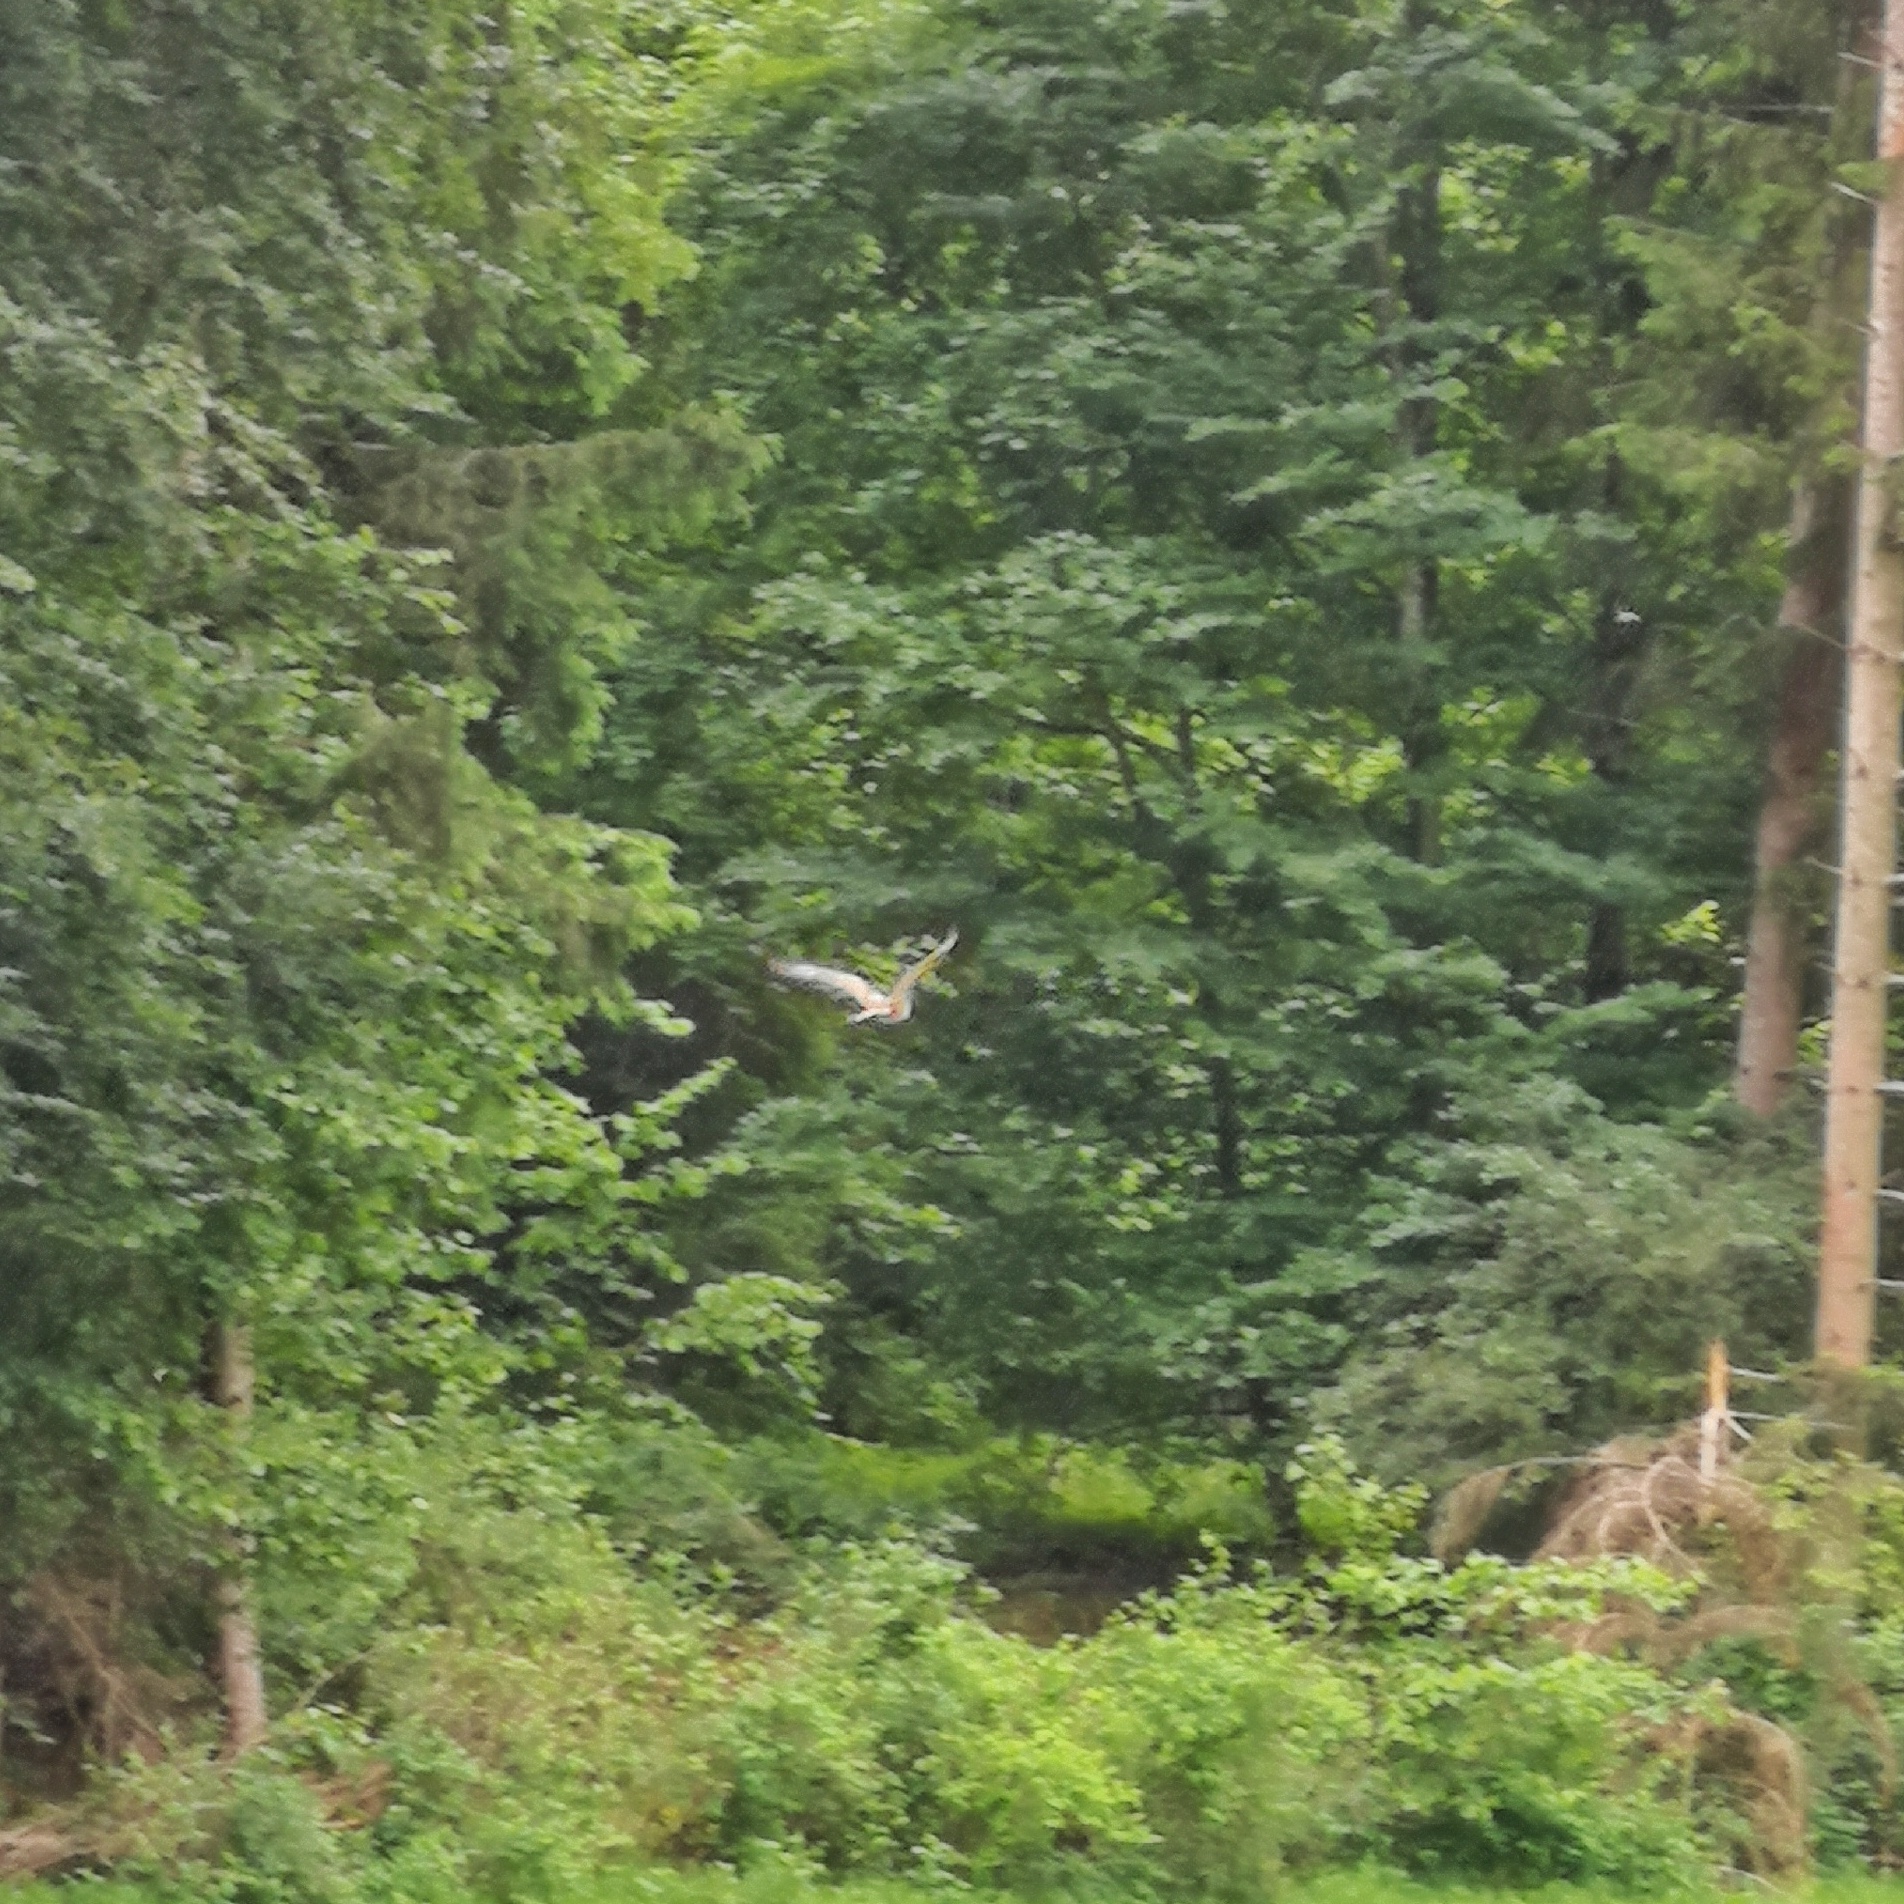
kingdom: Animalia
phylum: Chordata
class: Aves
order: Accipitriformes
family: Accipitridae
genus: Circus
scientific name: Circus aeruginosus
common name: Western marsh harrier
